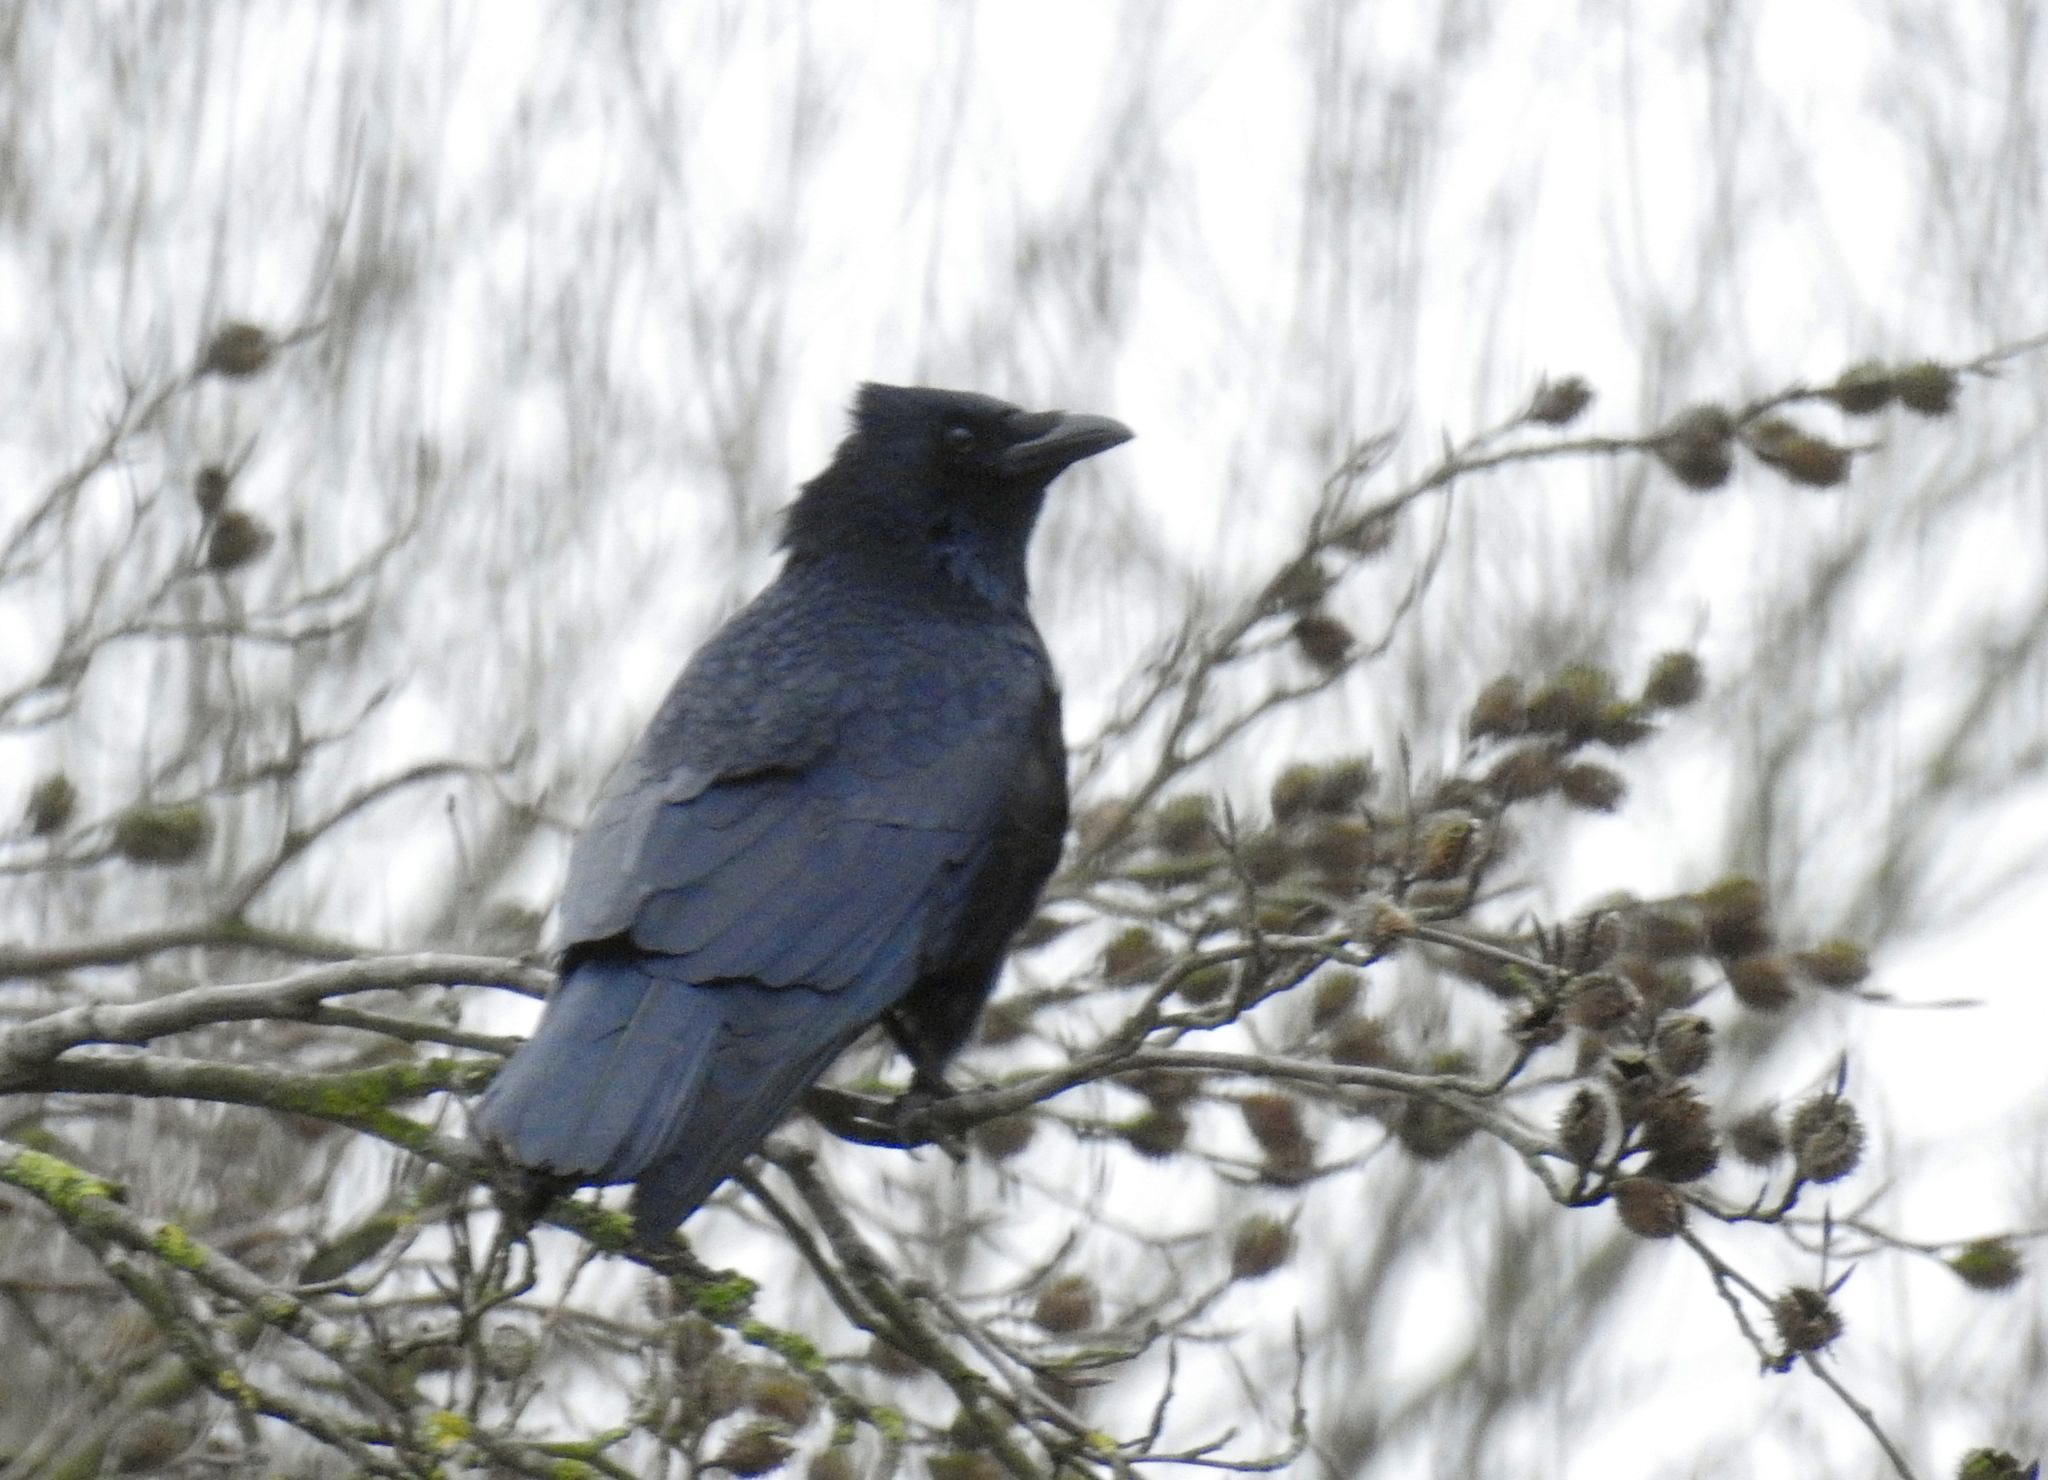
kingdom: Animalia
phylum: Chordata
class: Aves
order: Passeriformes
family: Corvidae
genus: Corvus
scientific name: Corvus corone
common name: Carrion crow
